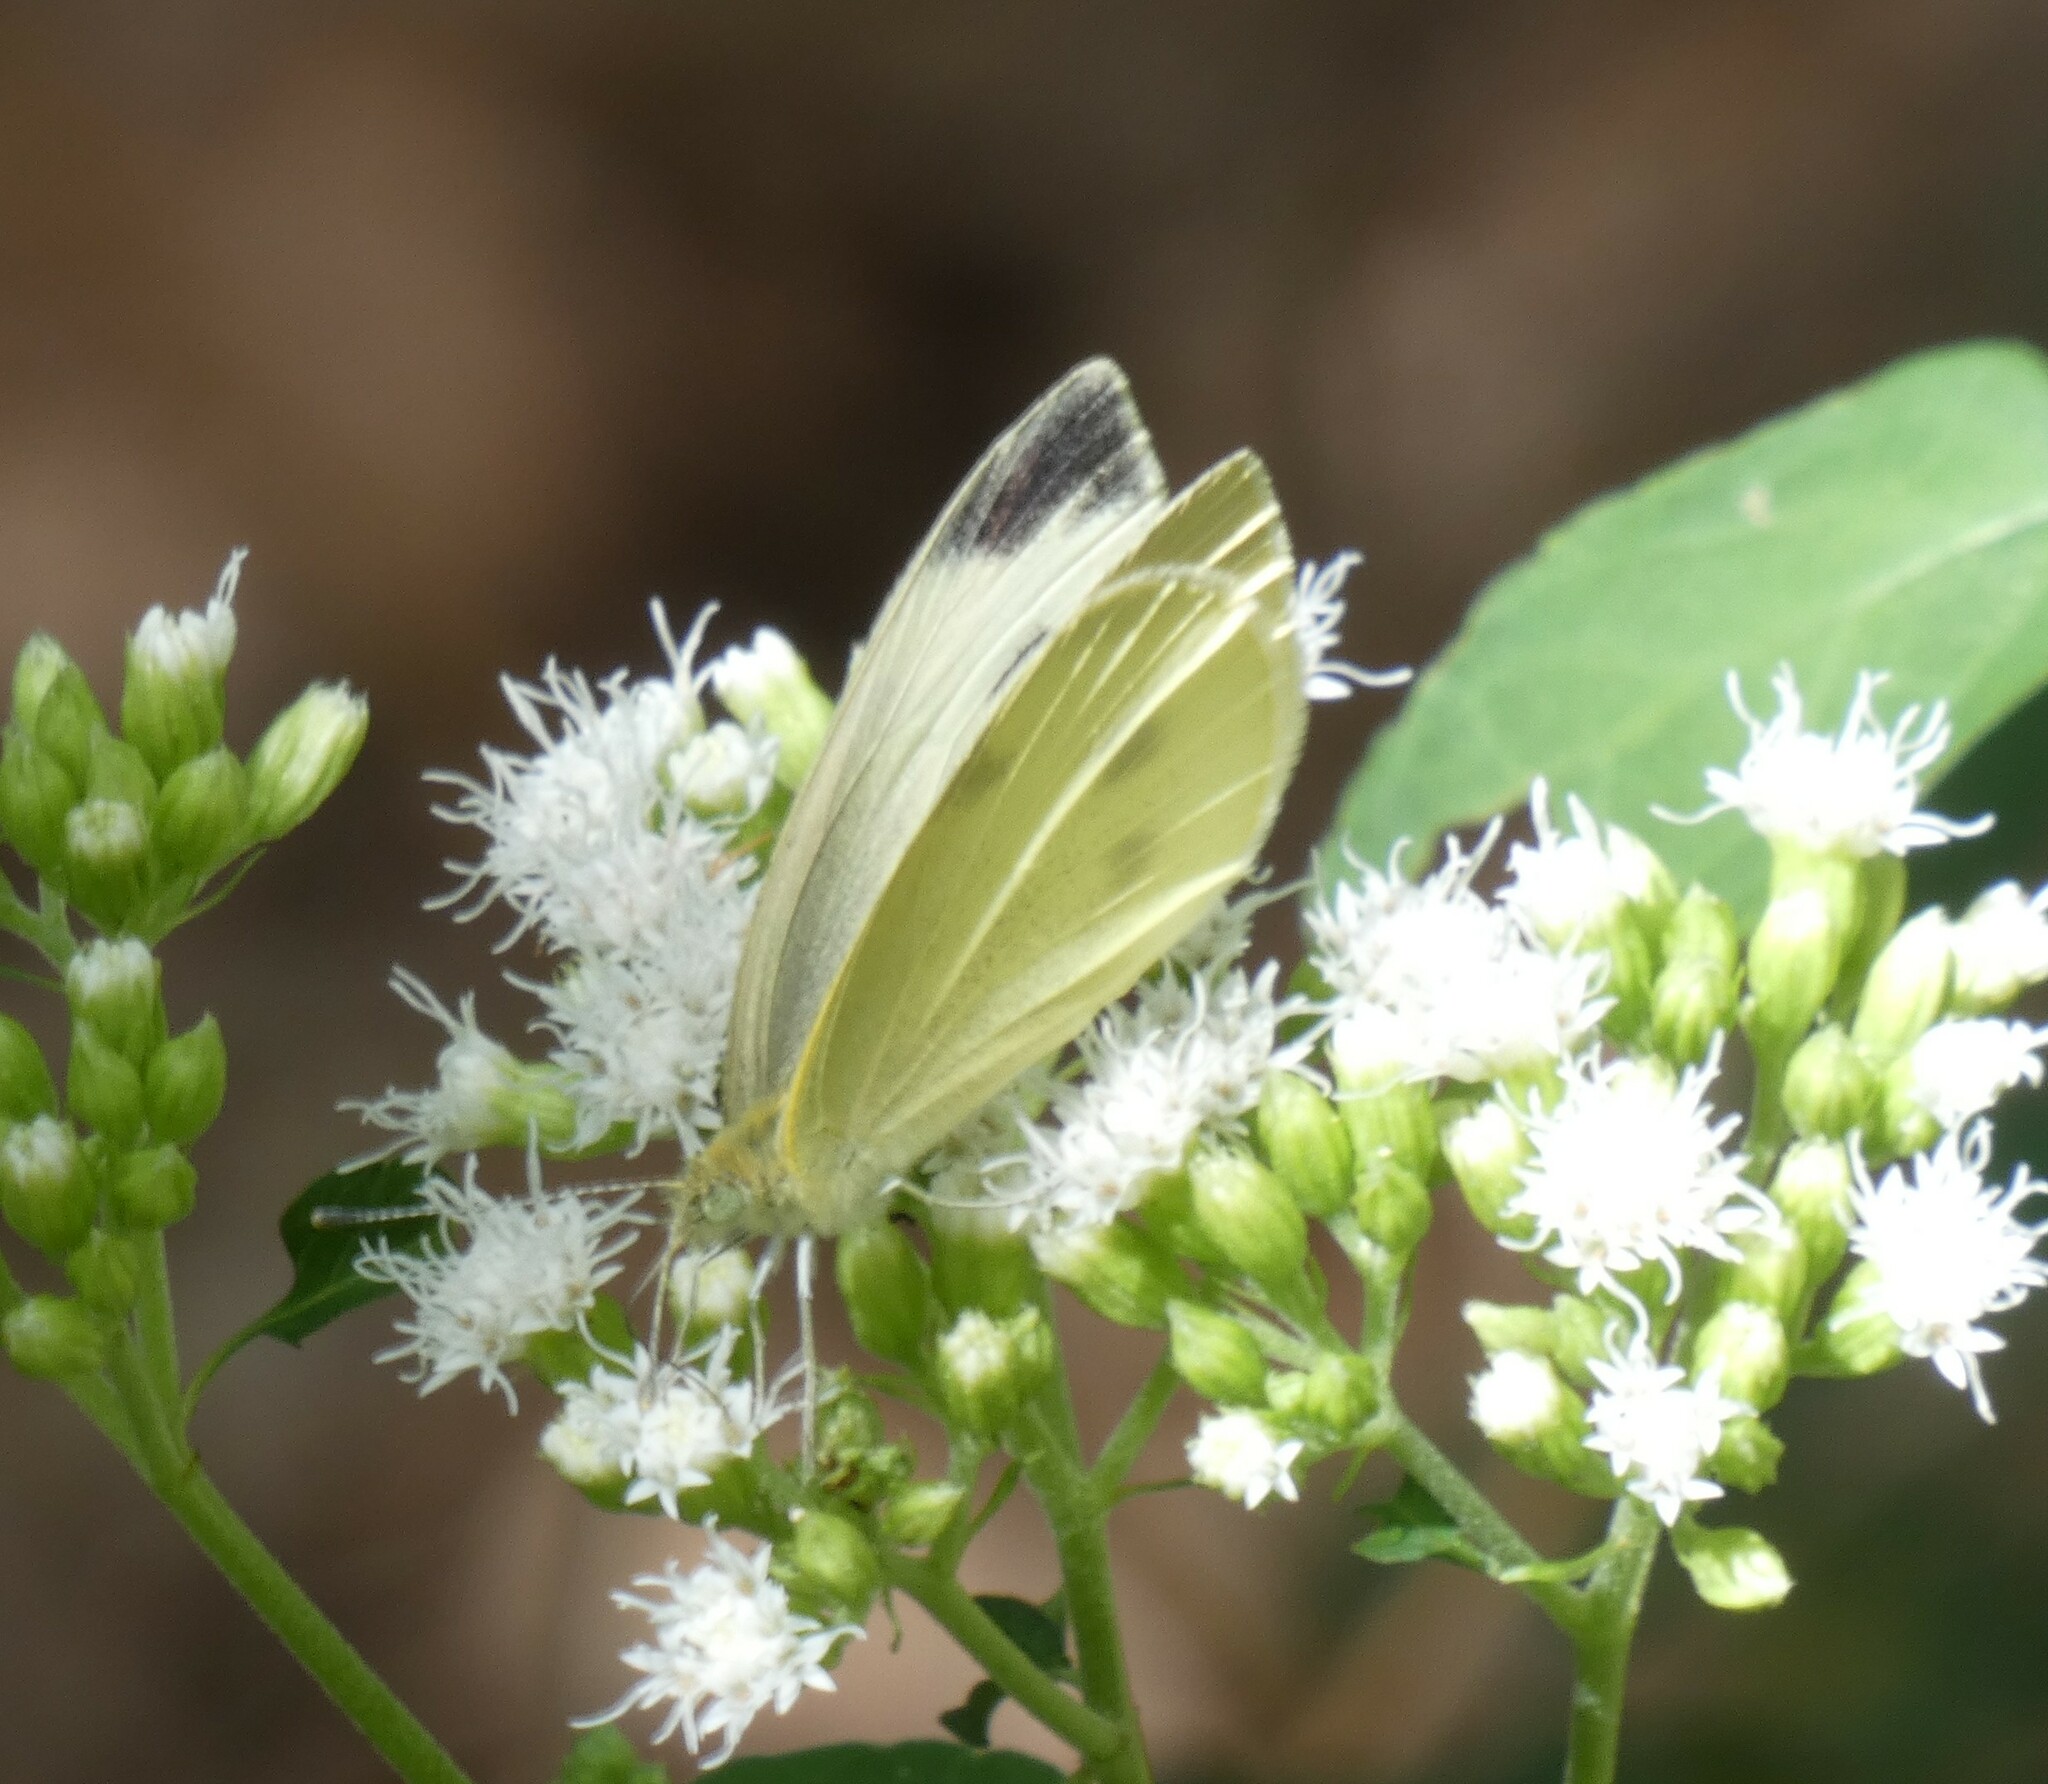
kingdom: Animalia
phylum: Arthropoda
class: Insecta
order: Lepidoptera
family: Pieridae
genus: Pieris
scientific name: Pieris rapae
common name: Small white
